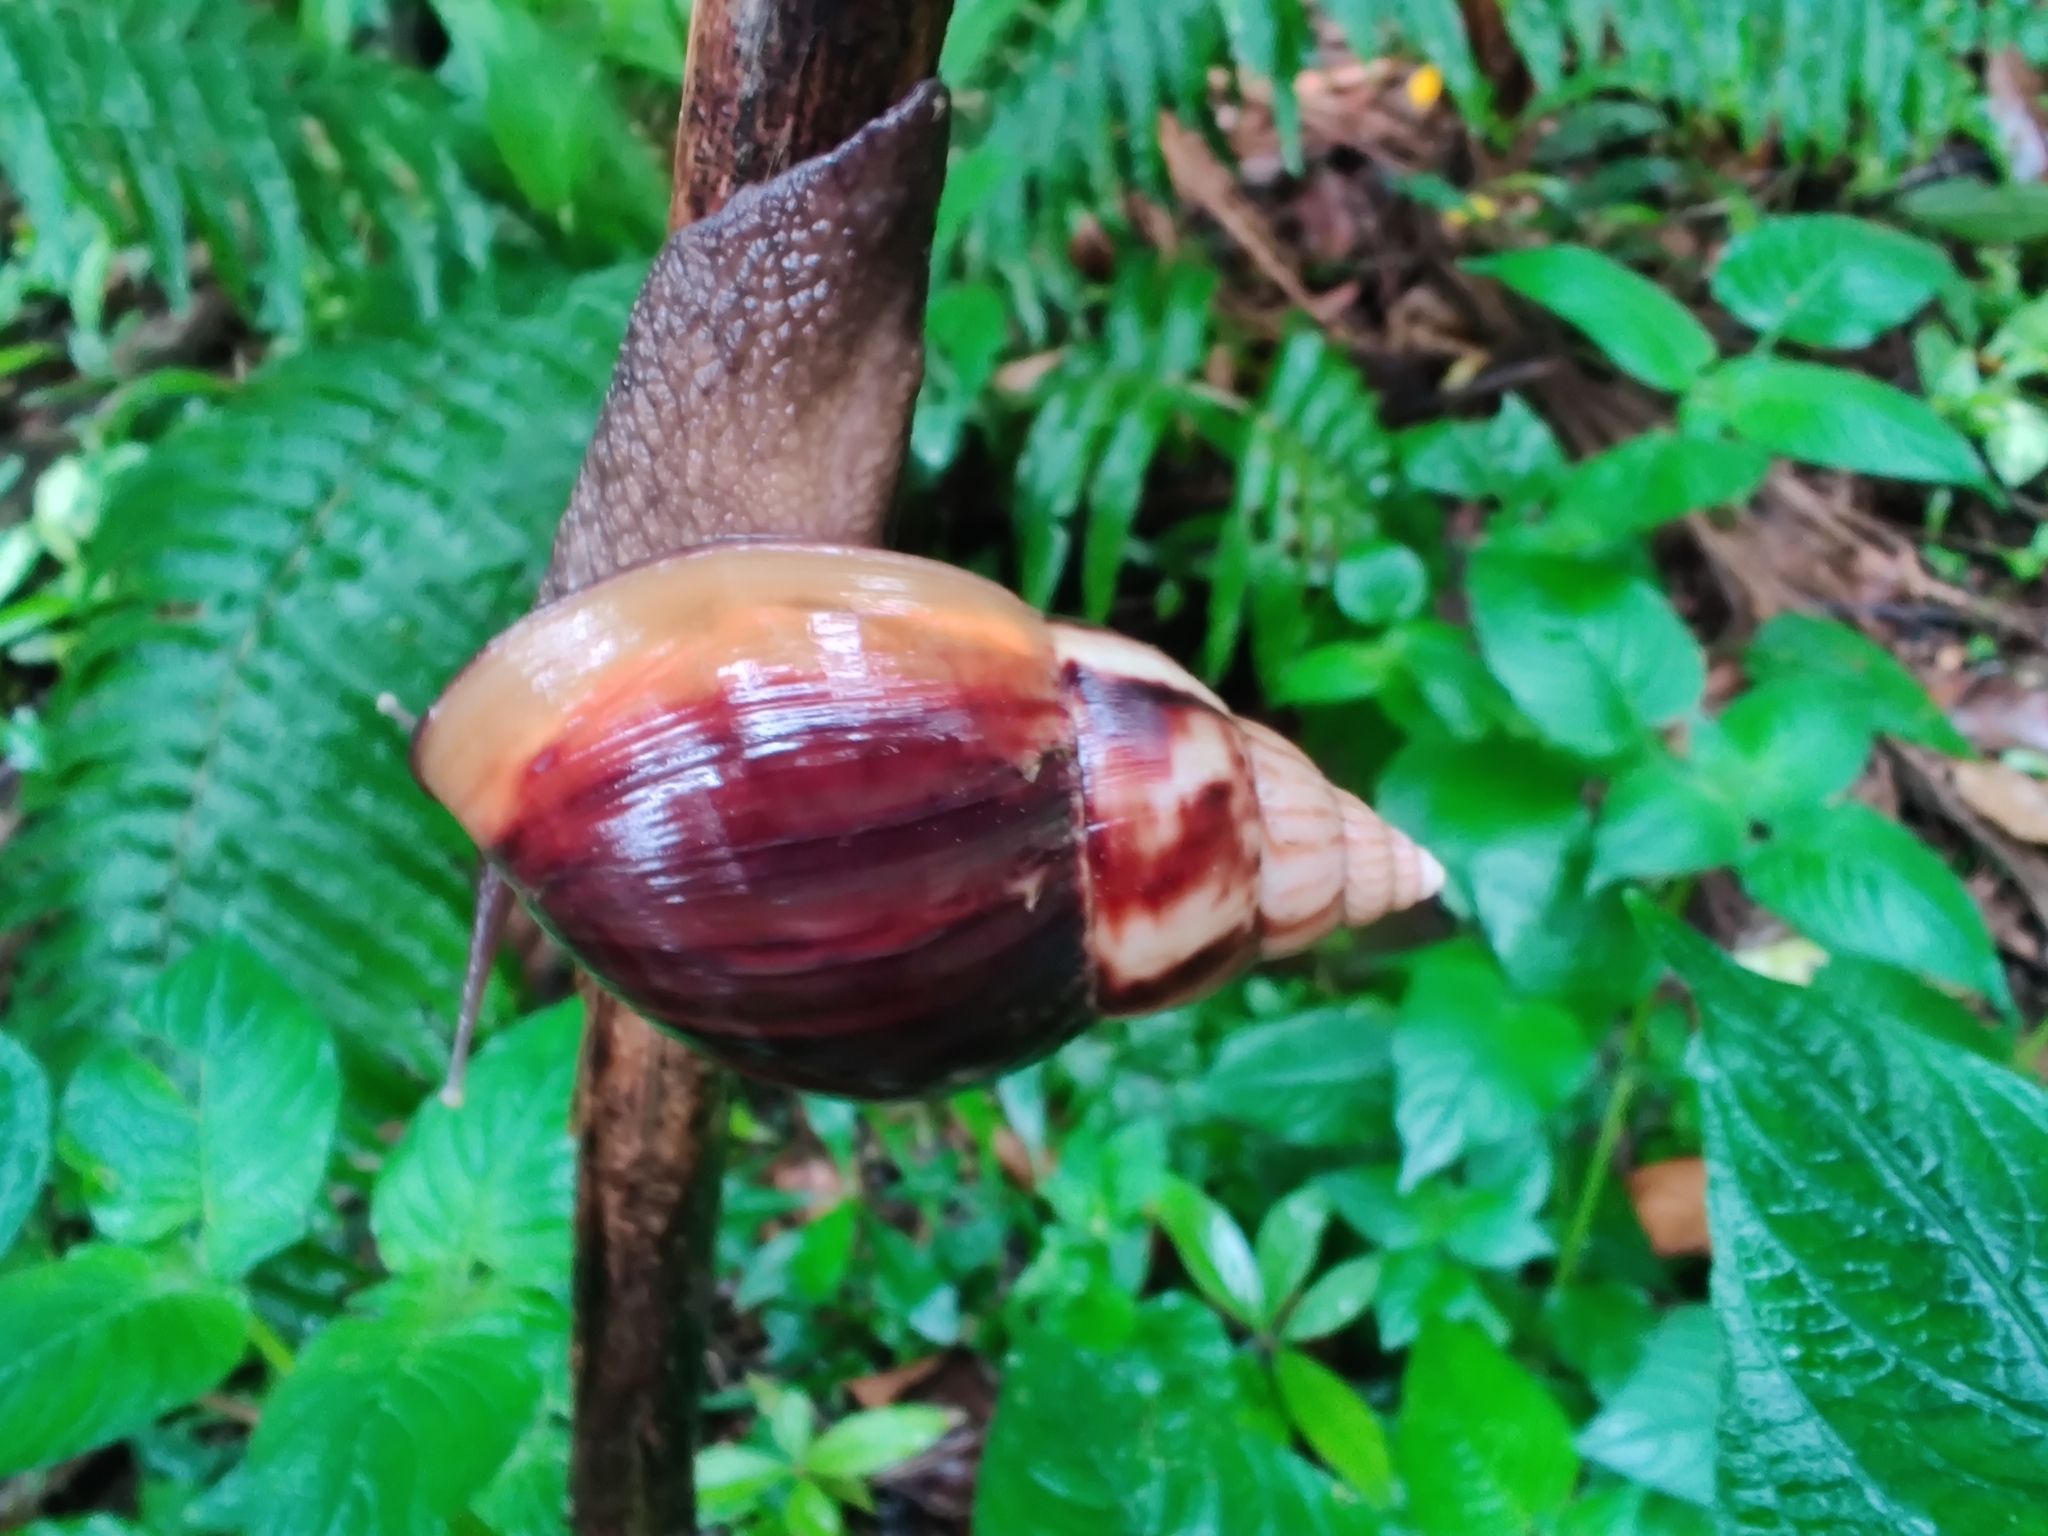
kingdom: Animalia
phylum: Mollusca
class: Gastropoda
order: Stylommatophora
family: Achatinidae
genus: Lissachatina
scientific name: Lissachatina fulica
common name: Giant african snail
